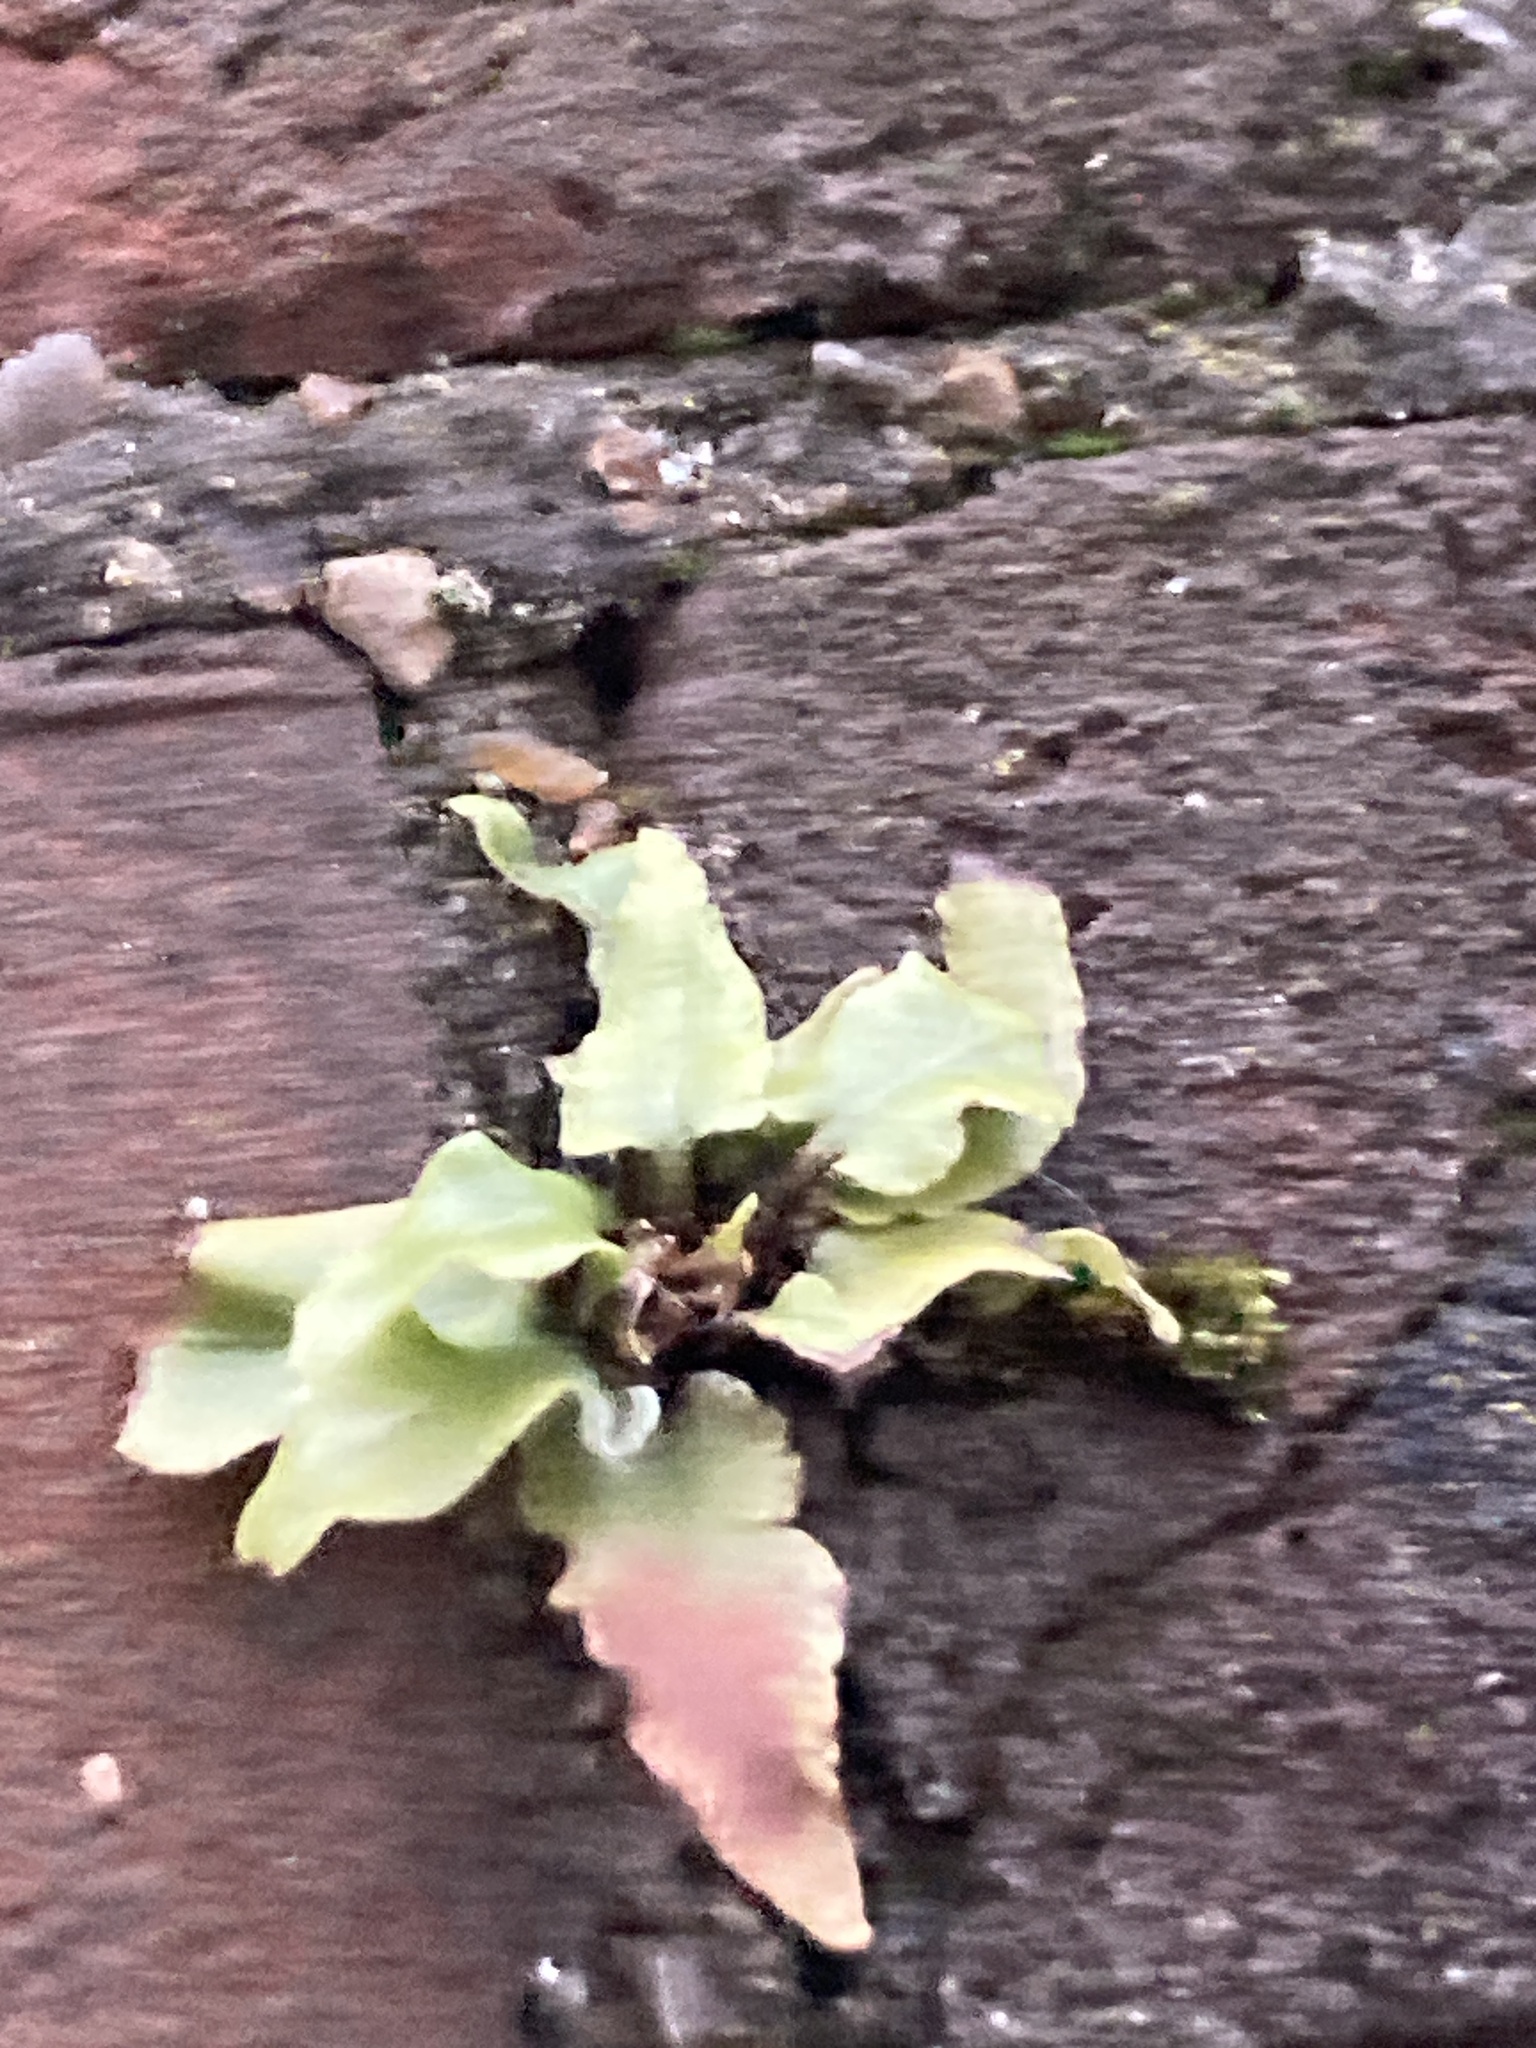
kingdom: Plantae
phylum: Tracheophyta
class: Polypodiopsida
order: Polypodiales
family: Aspleniaceae
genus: Asplenium
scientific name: Asplenium scolopendrium
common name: Hart's-tongue fern
